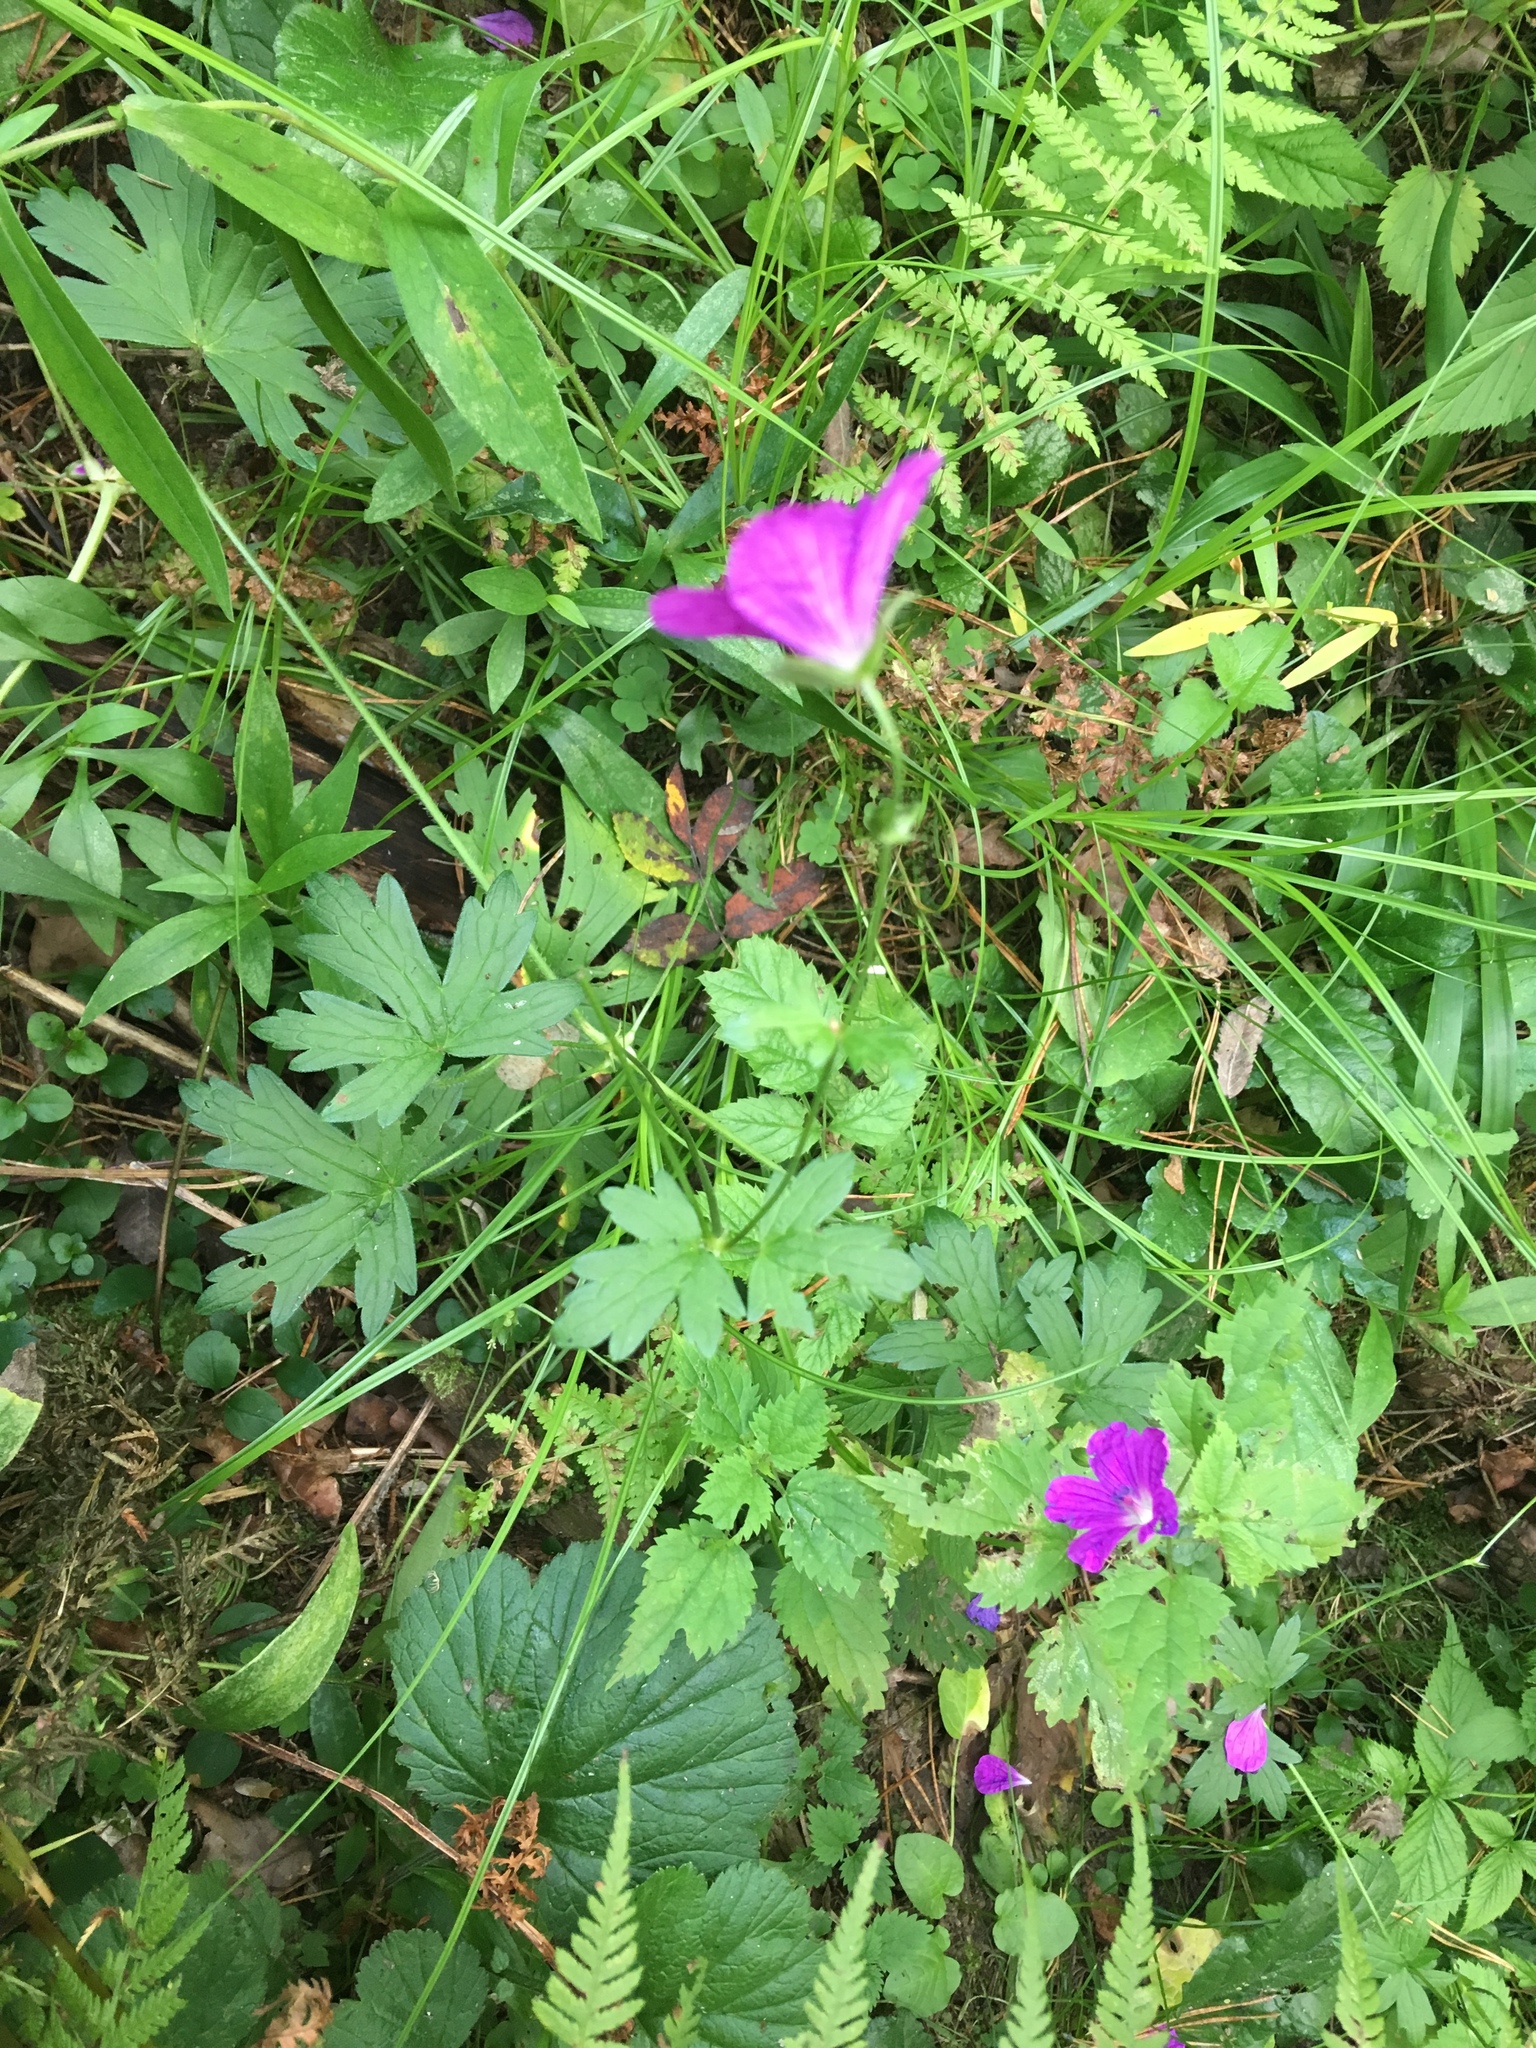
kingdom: Plantae
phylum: Tracheophyta
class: Magnoliopsida
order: Geraniales
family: Geraniaceae
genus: Geranium
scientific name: Geranium palustre
